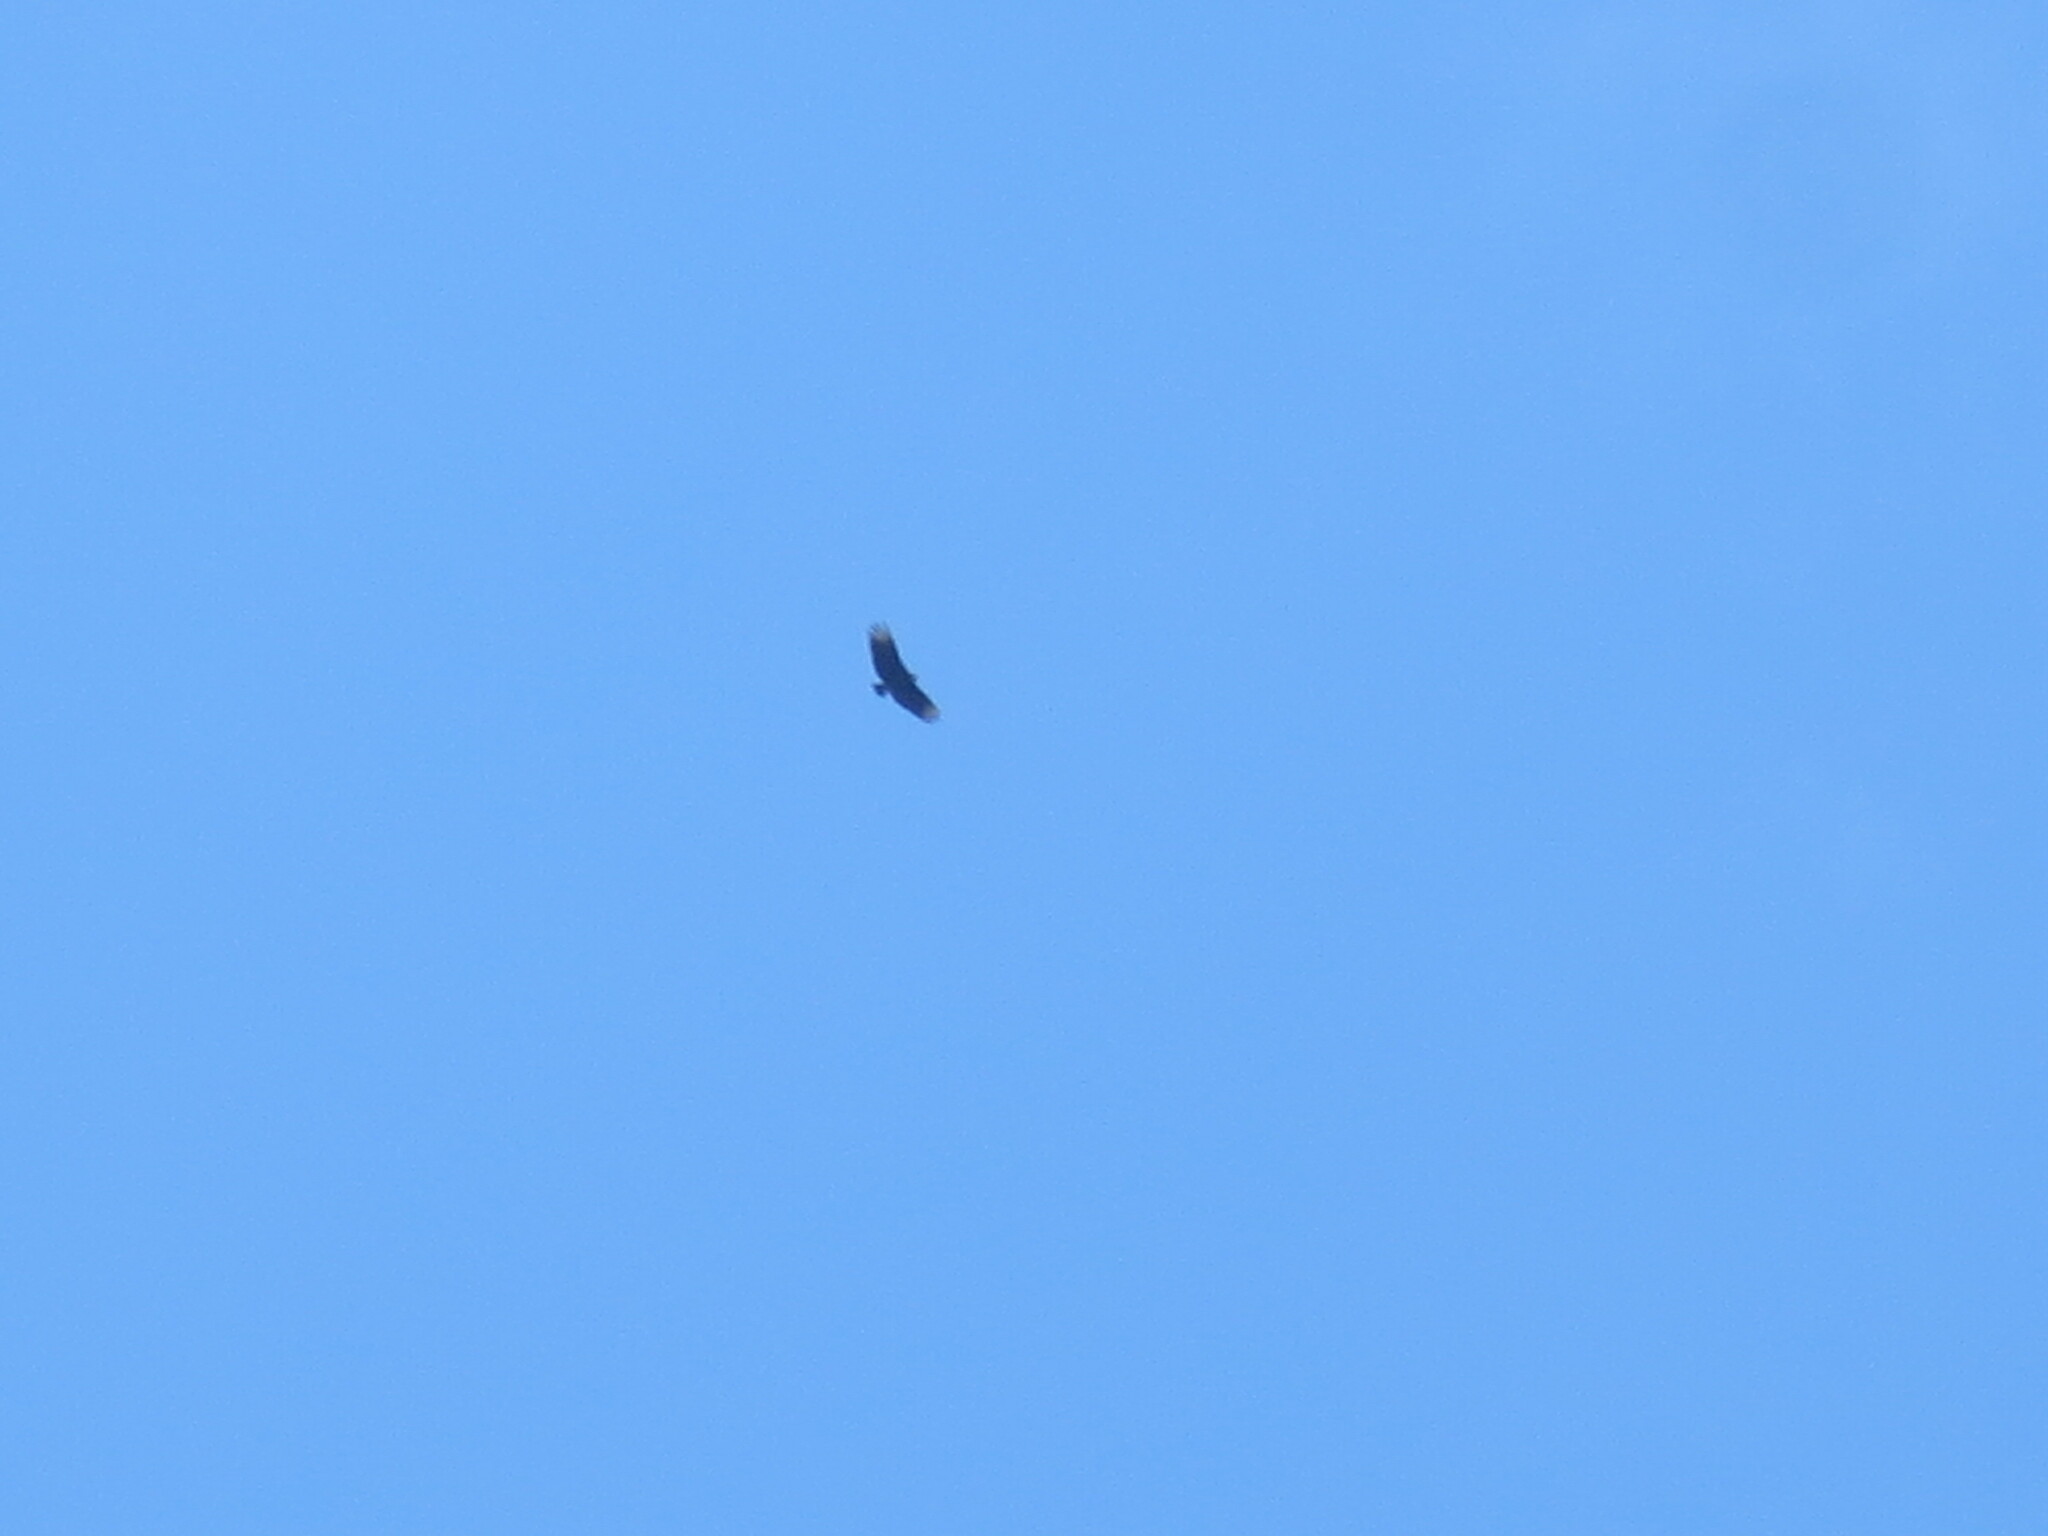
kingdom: Animalia
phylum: Chordata
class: Aves
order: Accipitriformes
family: Cathartidae
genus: Coragyps
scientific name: Coragyps atratus
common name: Black vulture
